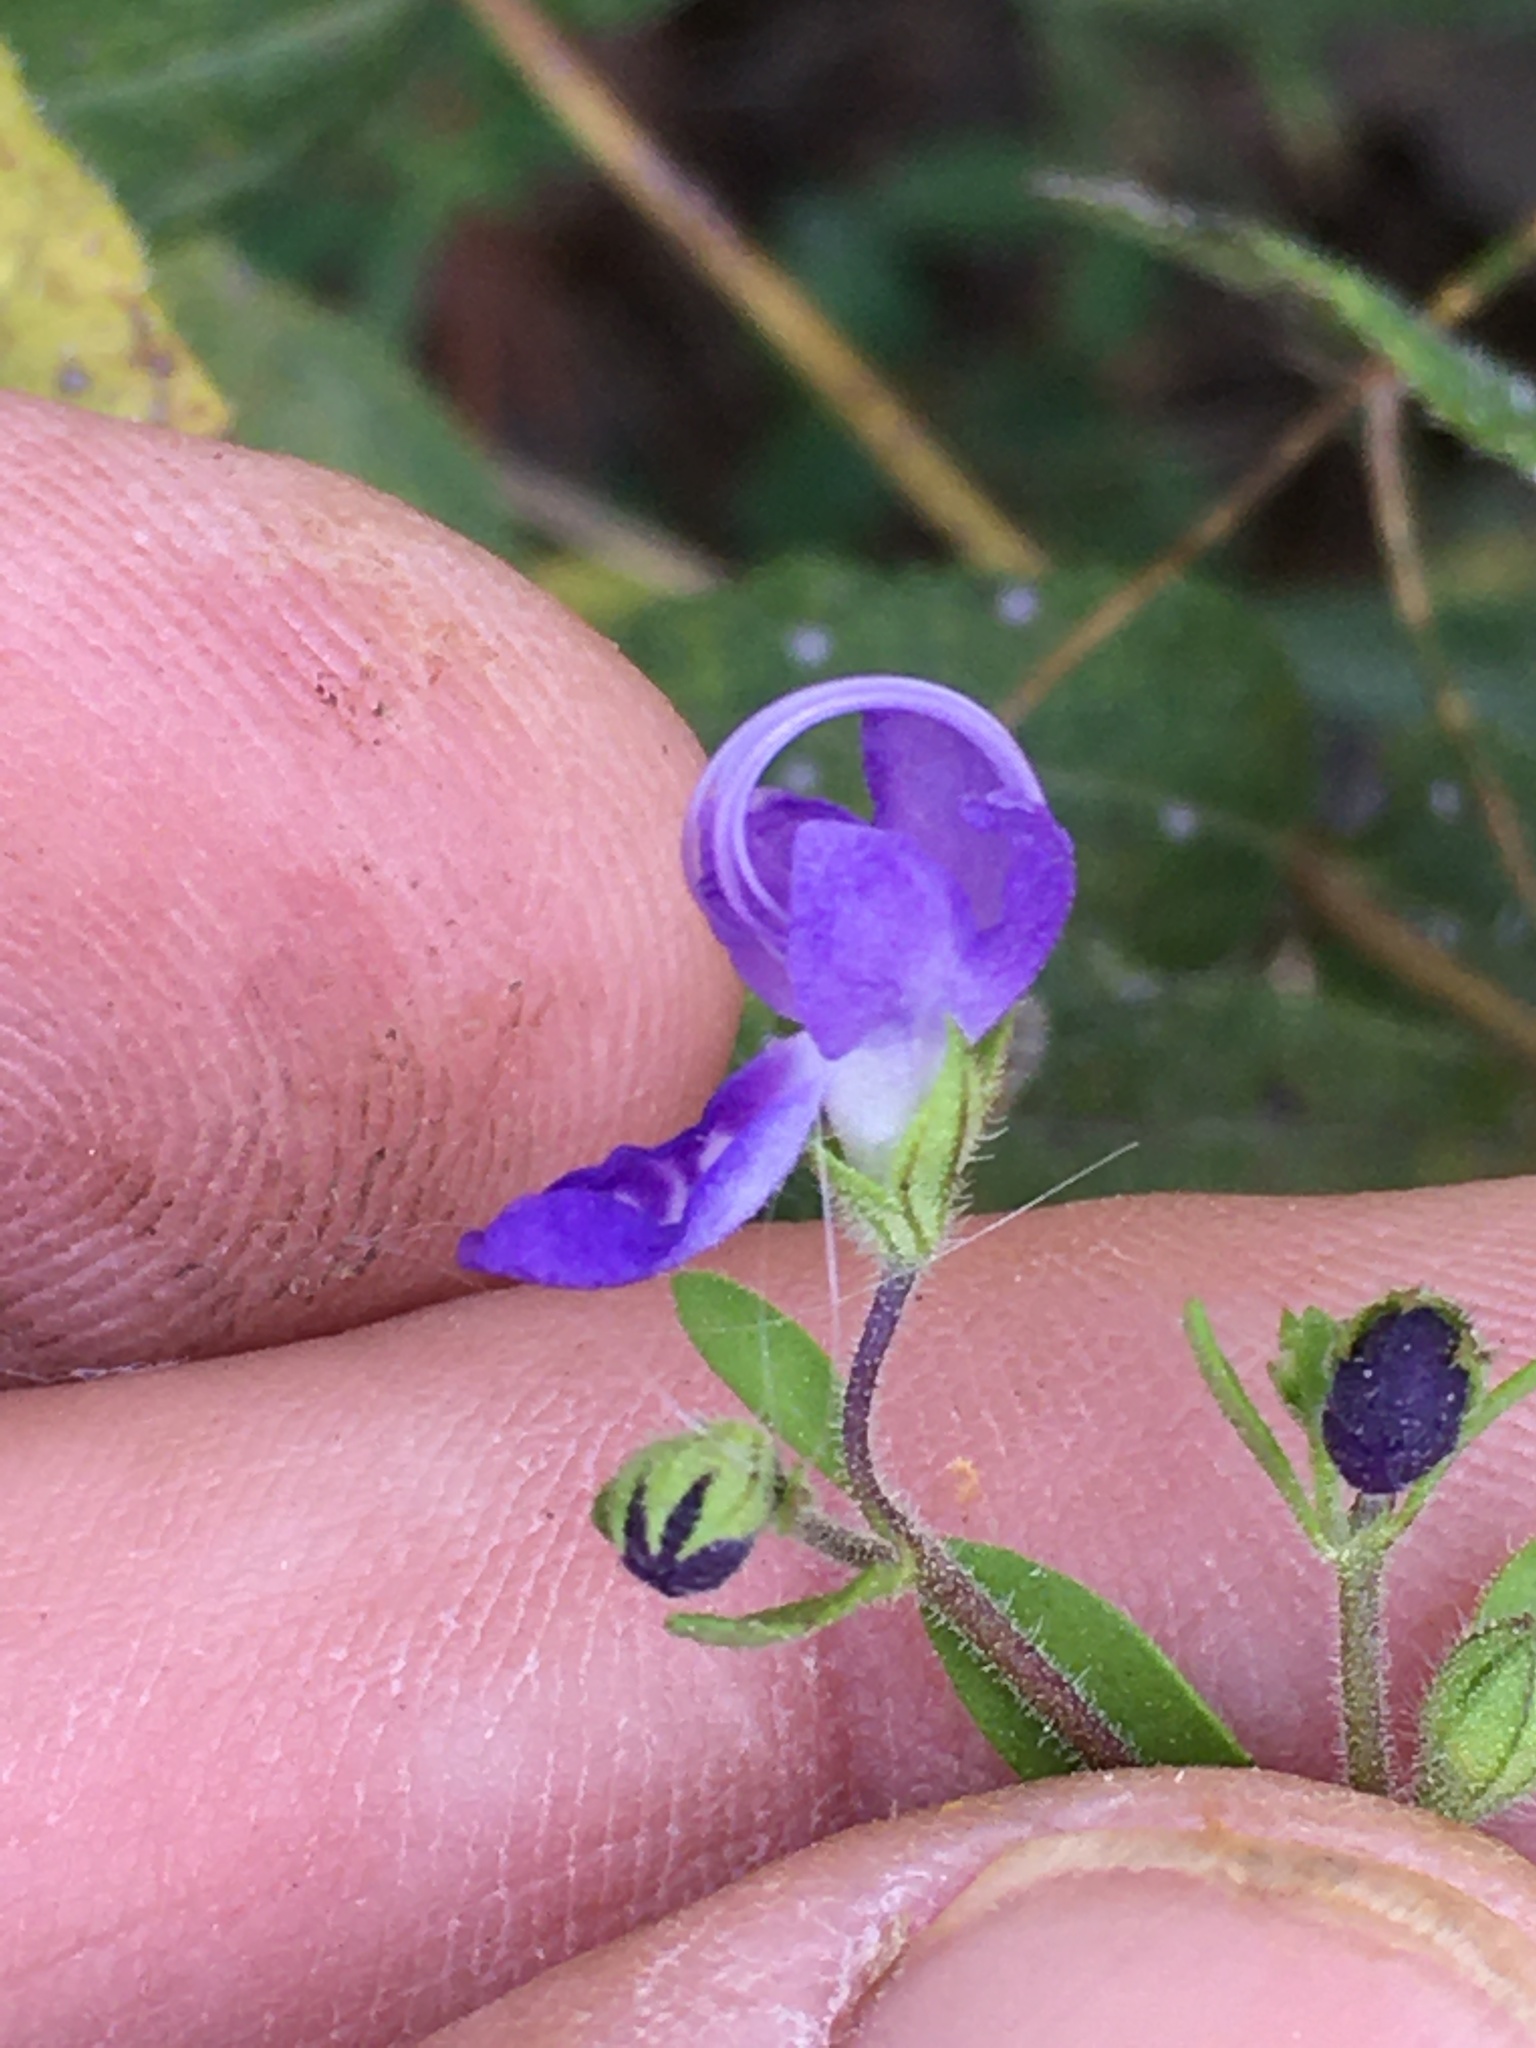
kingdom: Plantae
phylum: Tracheophyta
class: Magnoliopsida
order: Lamiales
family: Lamiaceae
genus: Trichostema
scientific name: Trichostema dichotomum
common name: Bastard pennyroyal
